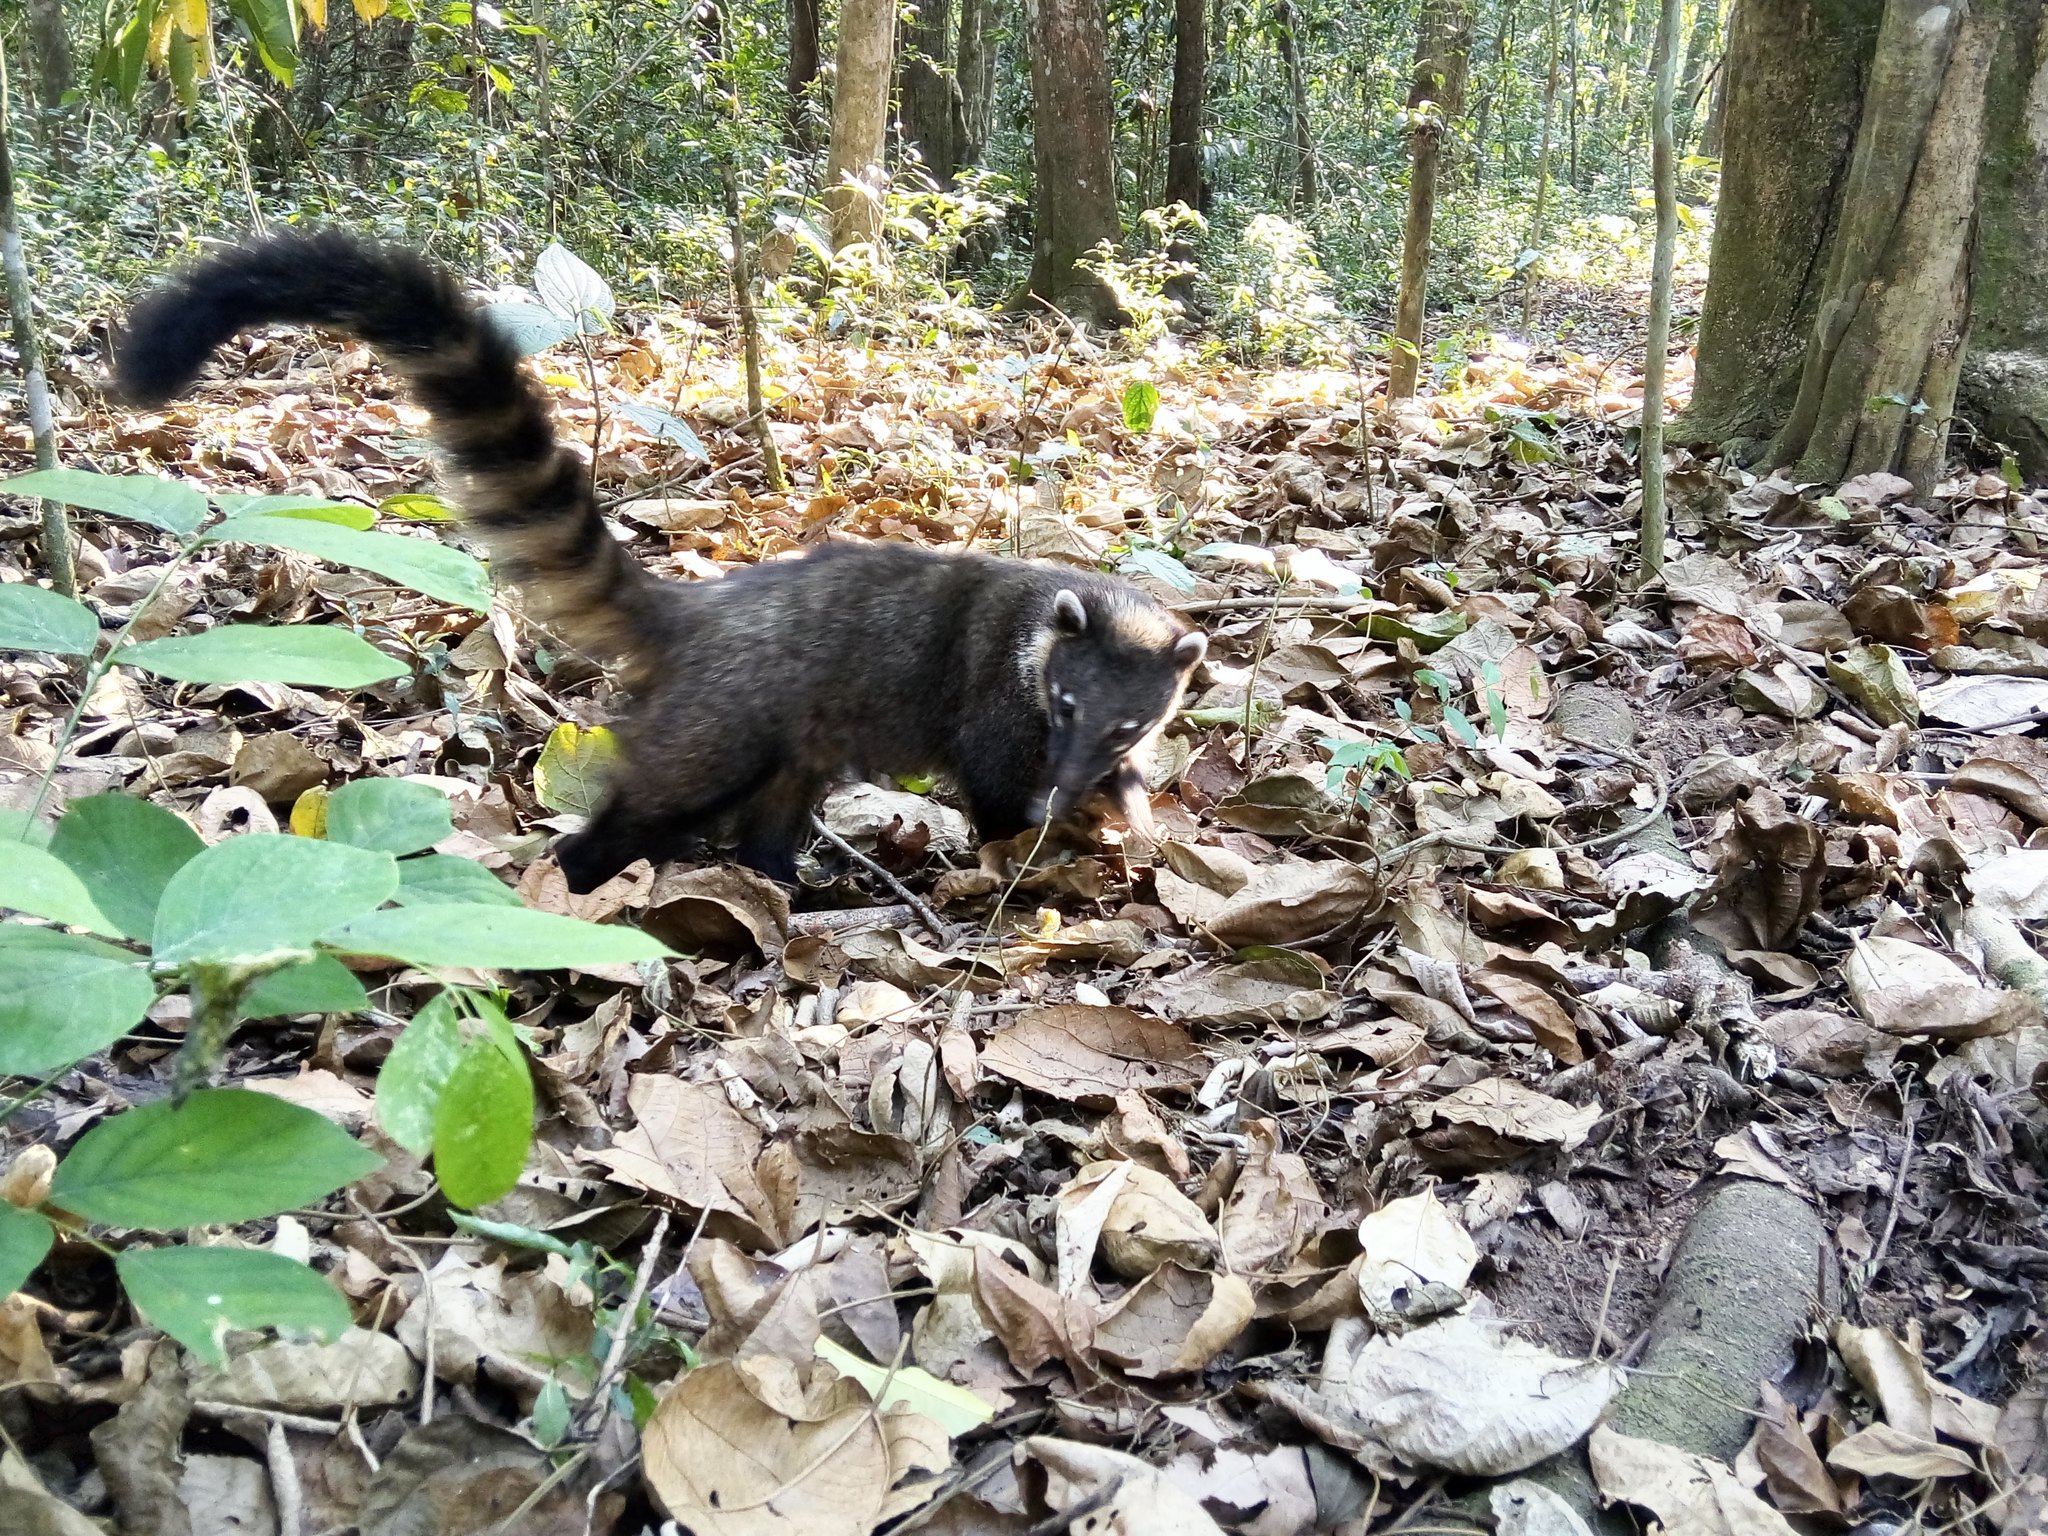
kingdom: Animalia
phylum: Chordata
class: Mammalia
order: Carnivora
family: Procyonidae
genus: Nasua
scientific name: Nasua nasua
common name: South american coati
